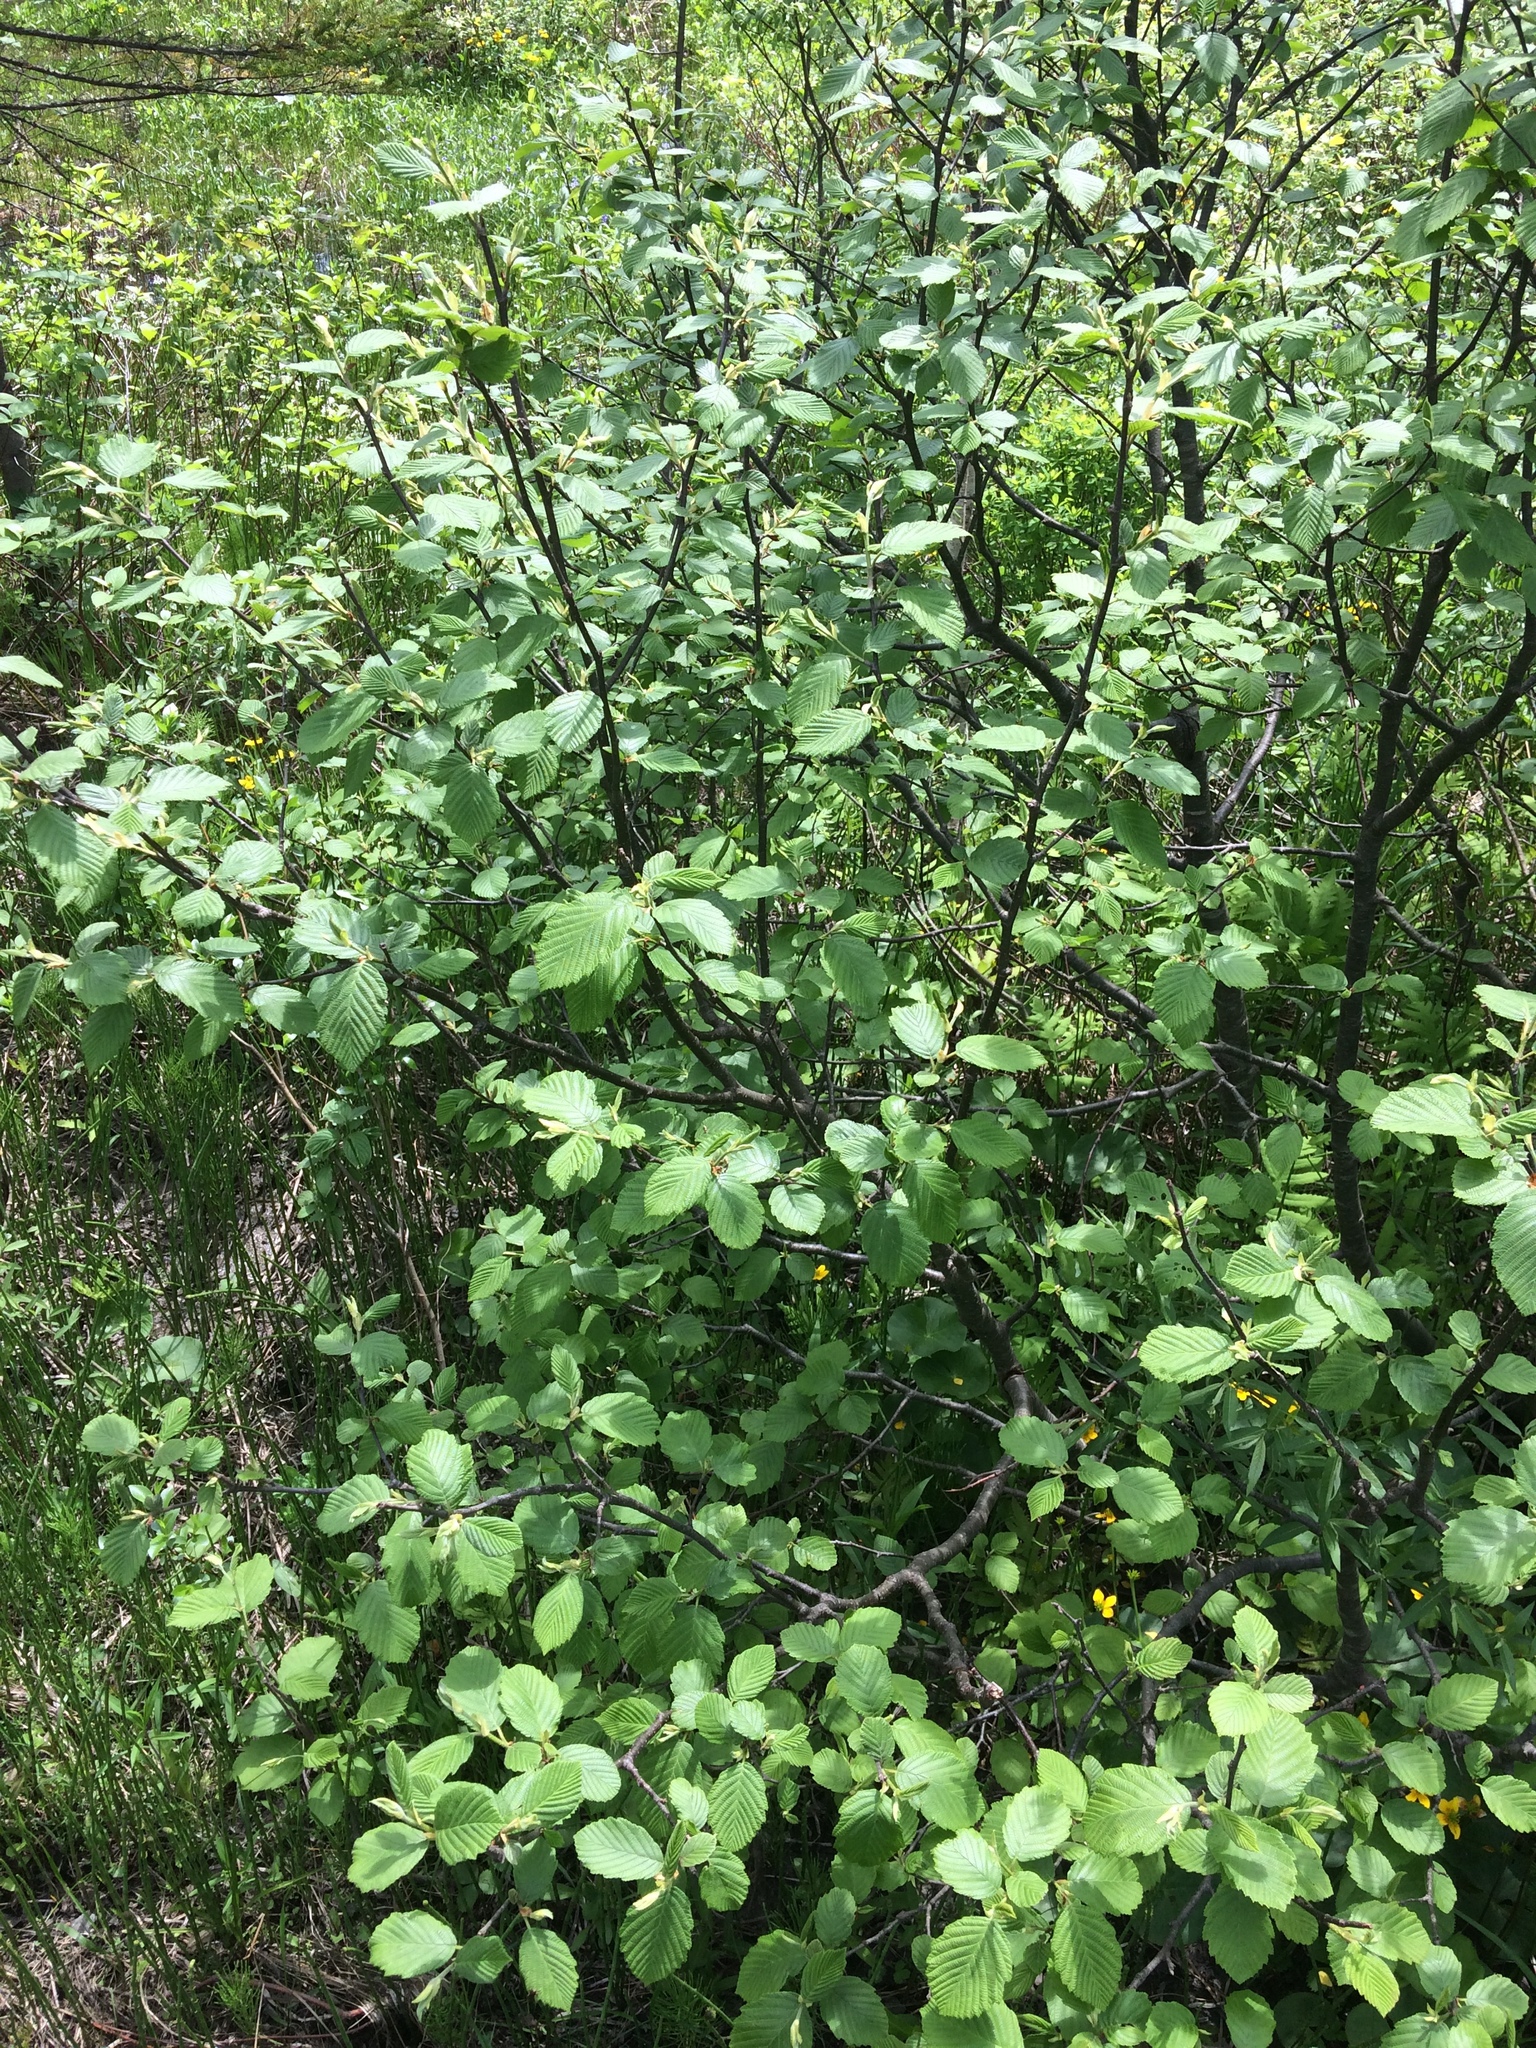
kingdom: Plantae
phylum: Tracheophyta
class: Magnoliopsida
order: Fagales
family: Betulaceae
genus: Alnus
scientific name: Alnus incana
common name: Grey alder
